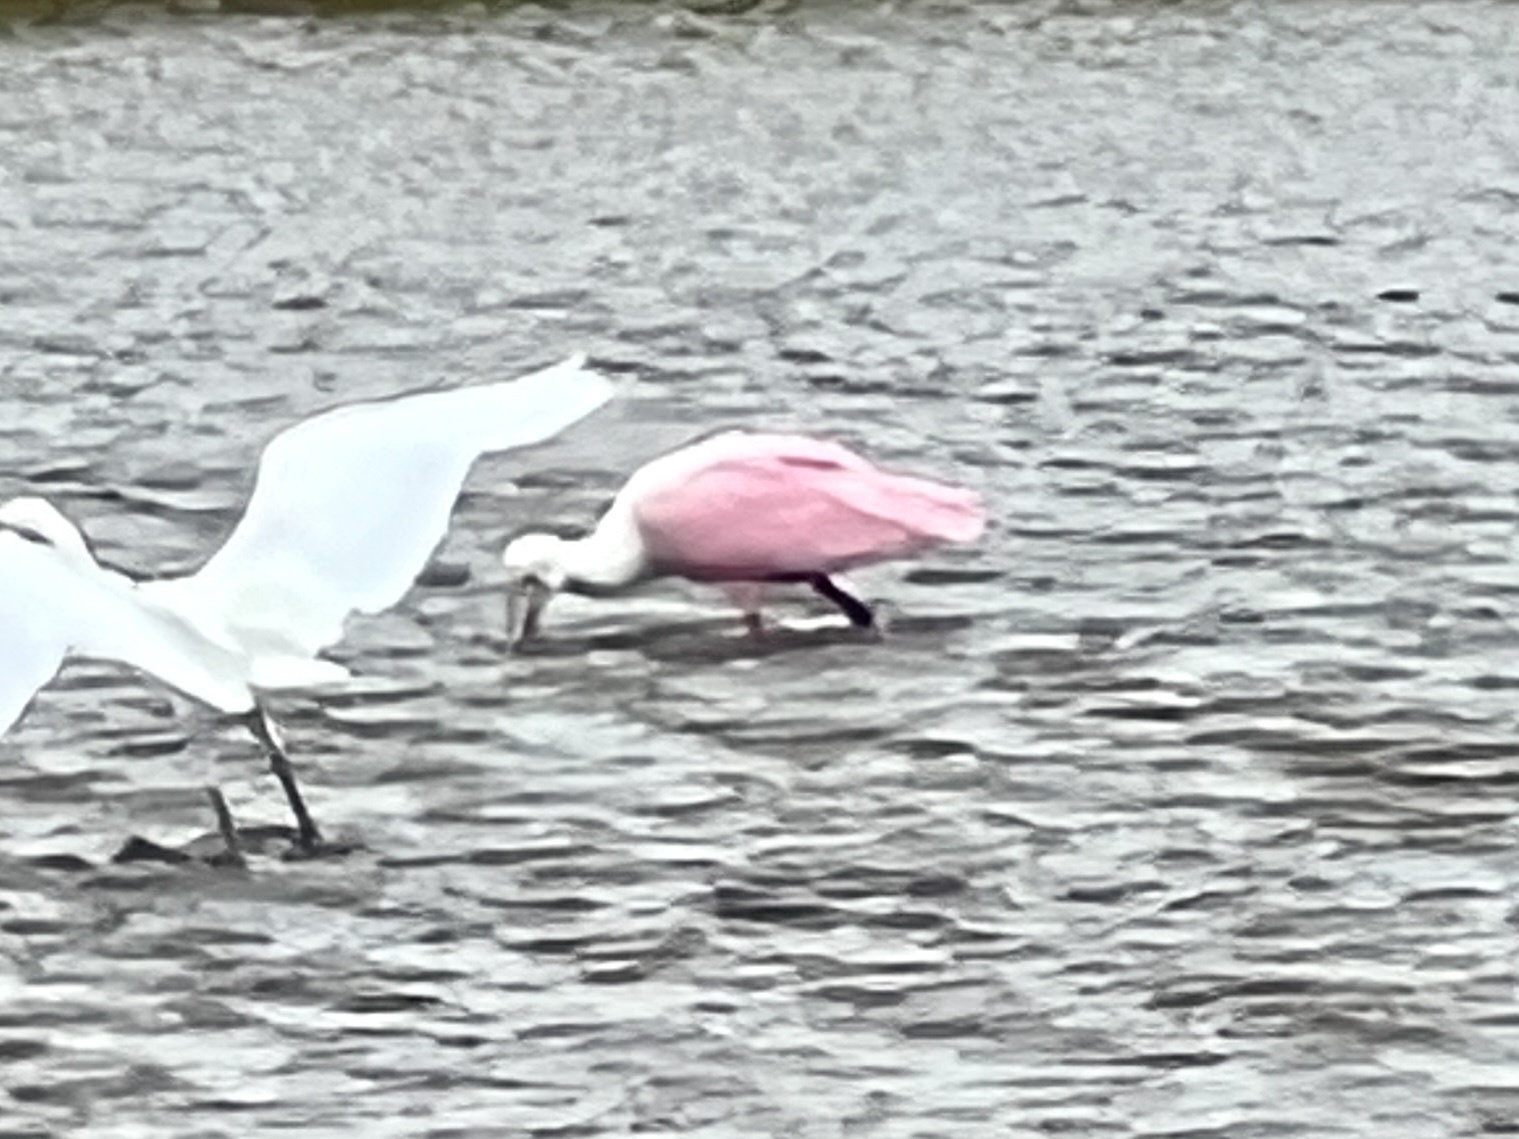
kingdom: Animalia
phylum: Chordata
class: Aves
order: Pelecaniformes
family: Threskiornithidae
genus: Platalea
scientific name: Platalea ajaja
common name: Roseate spoonbill
